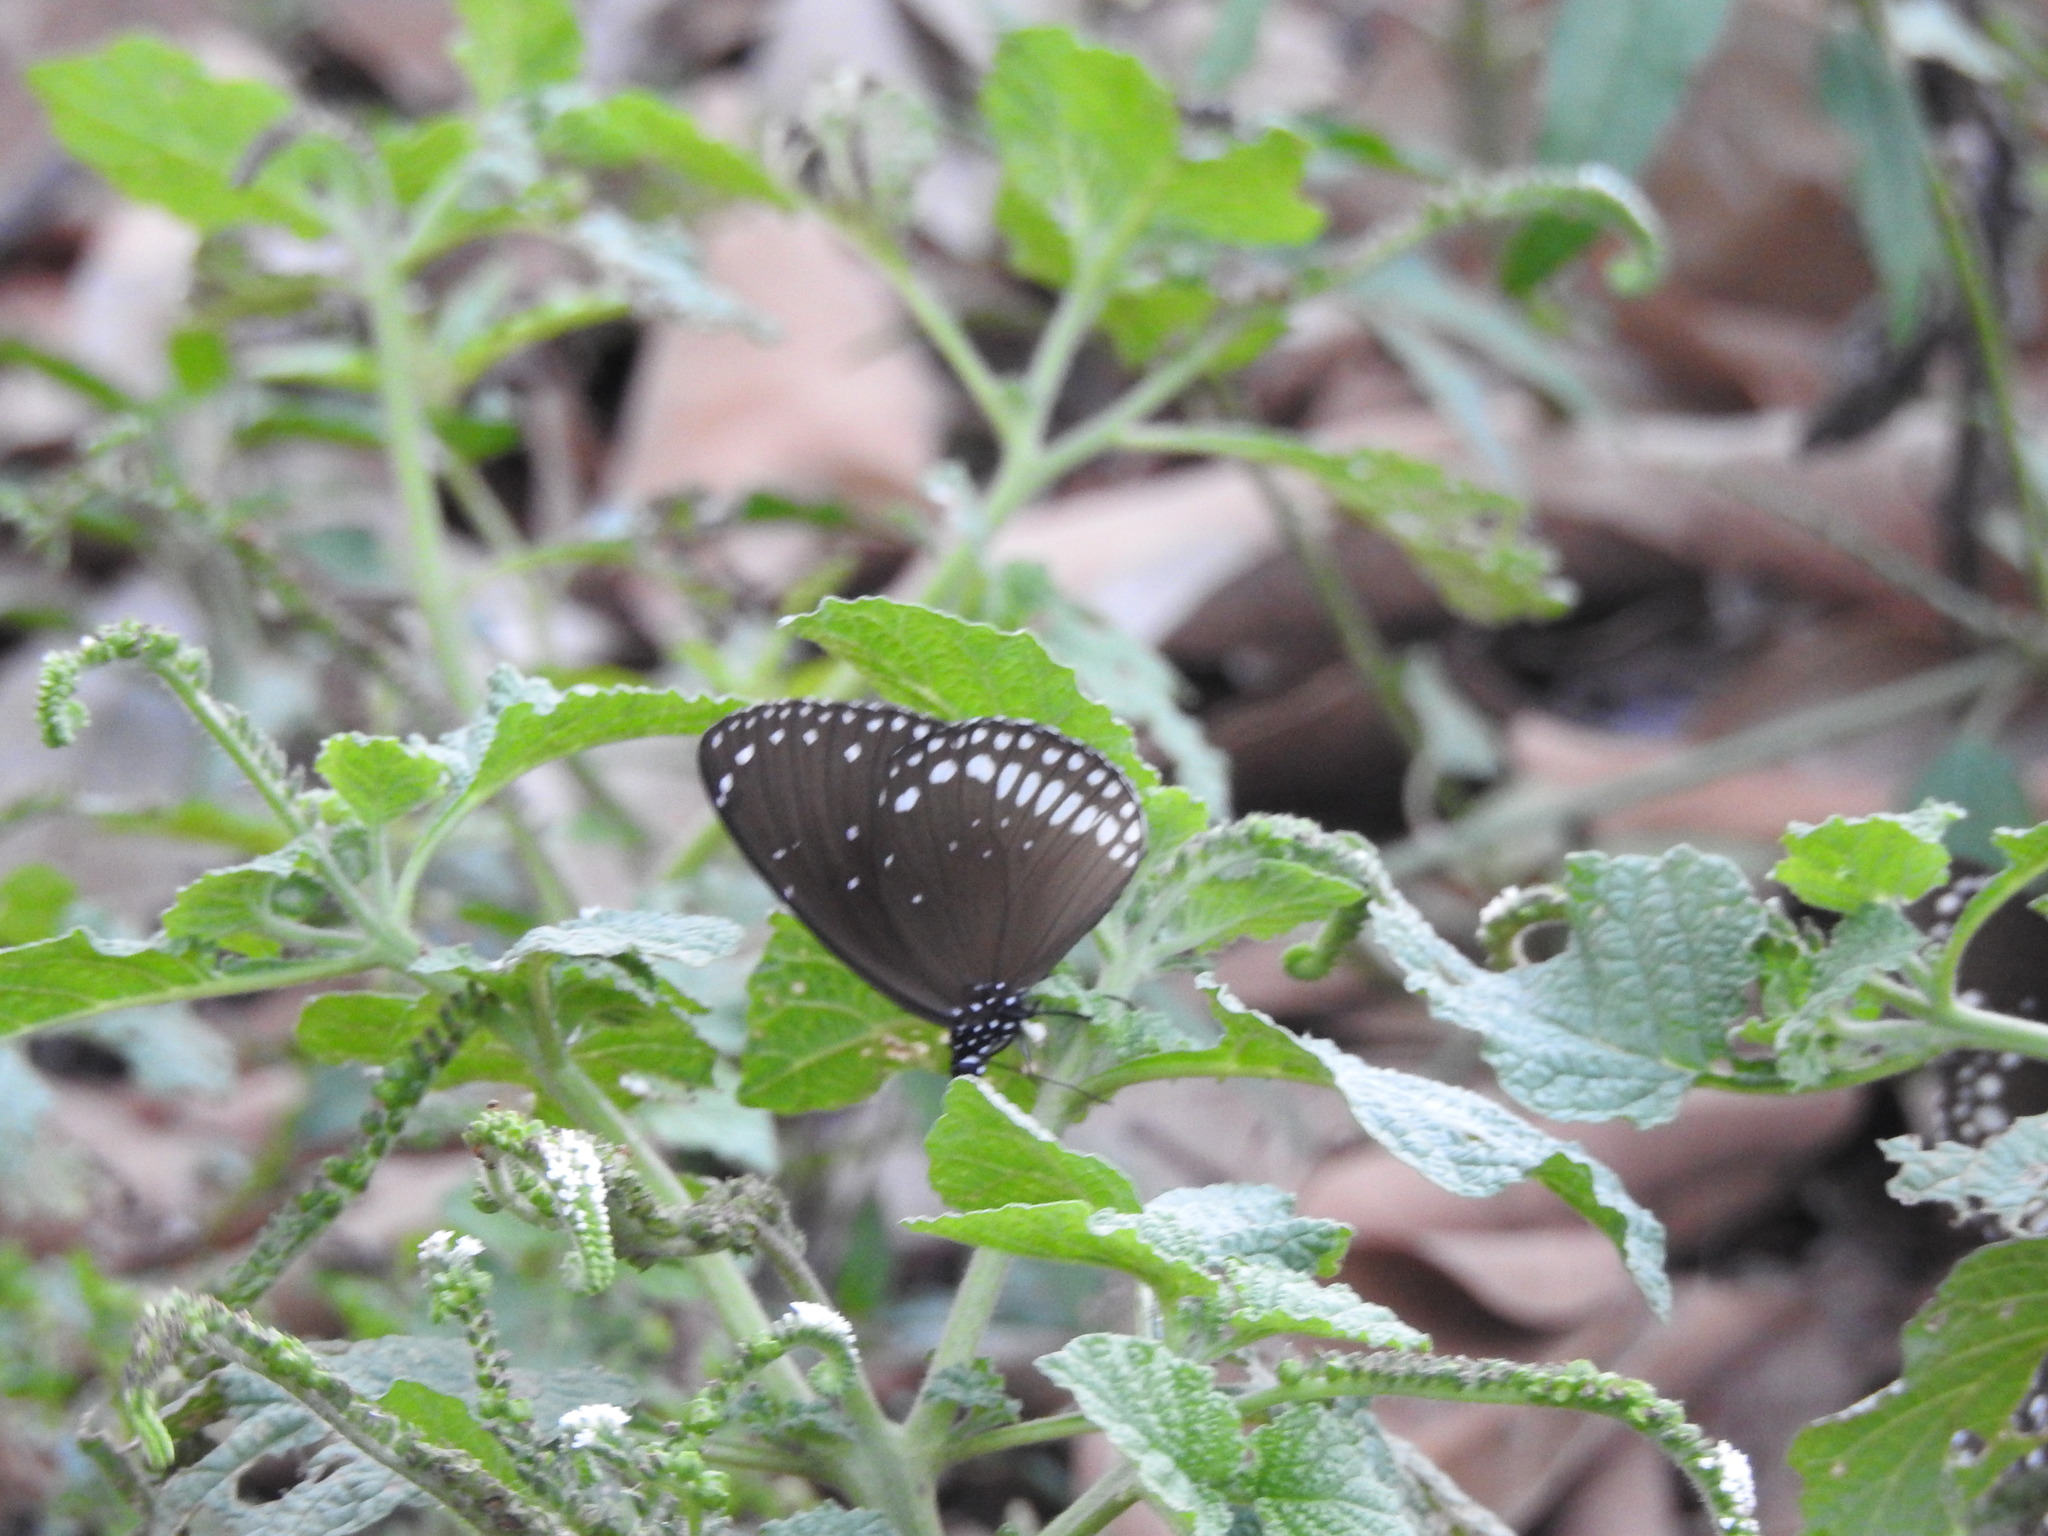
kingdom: Animalia
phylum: Arthropoda
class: Insecta
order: Lepidoptera
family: Nymphalidae
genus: Euploea
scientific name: Euploea sylvester
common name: Double-branded crow butterfly
